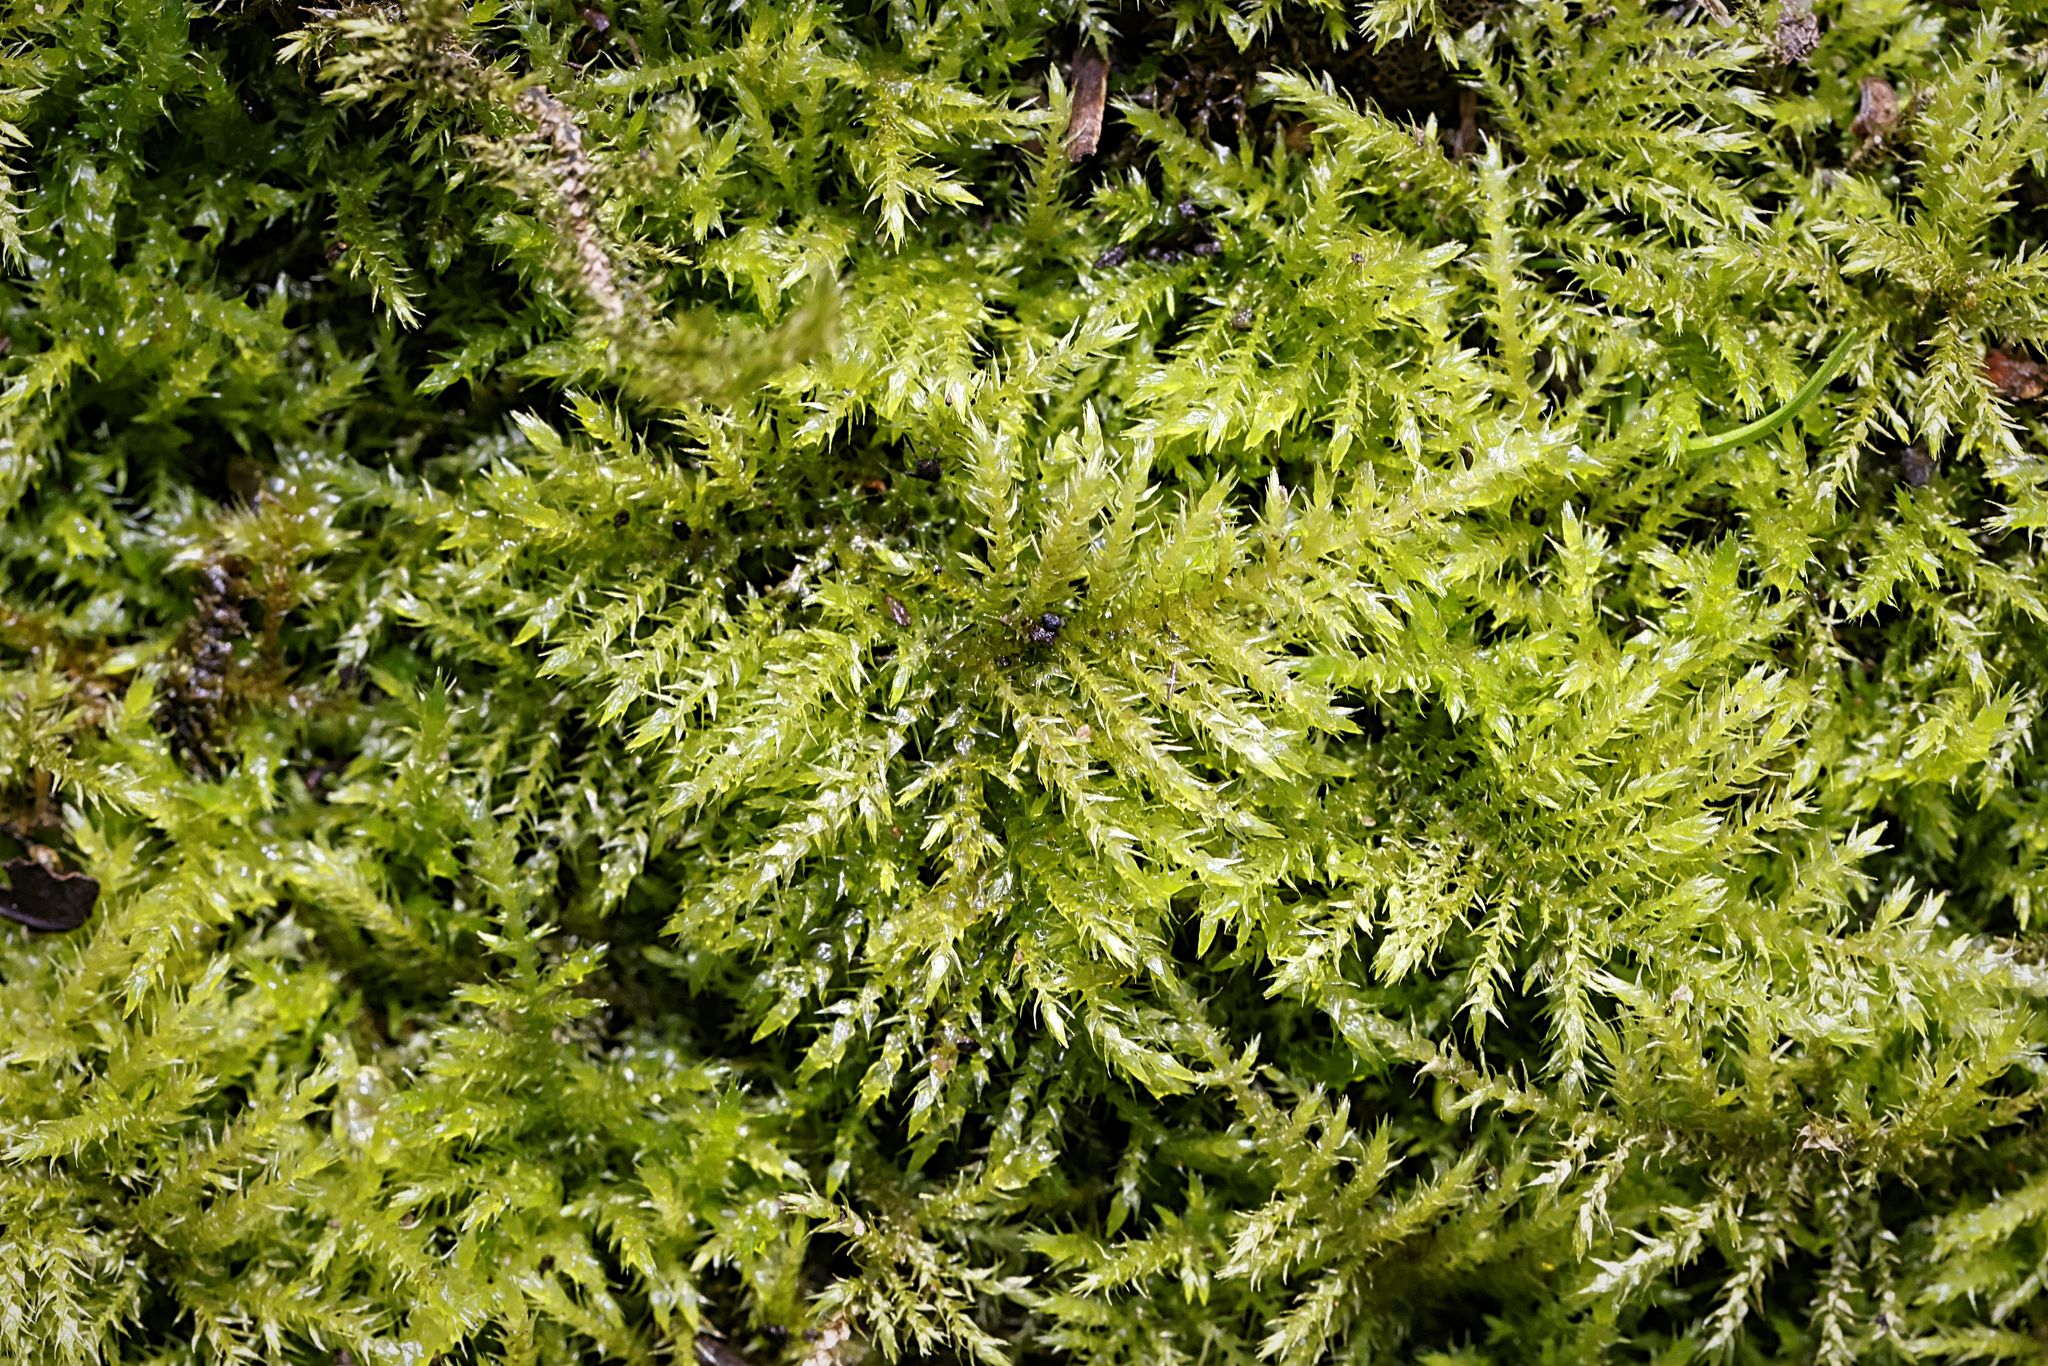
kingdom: Plantae
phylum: Bryophyta
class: Bryopsida
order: Hypnales
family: Brachytheciaceae
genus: Kindbergia
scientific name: Kindbergia praelonga
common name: Slender beaked moss
